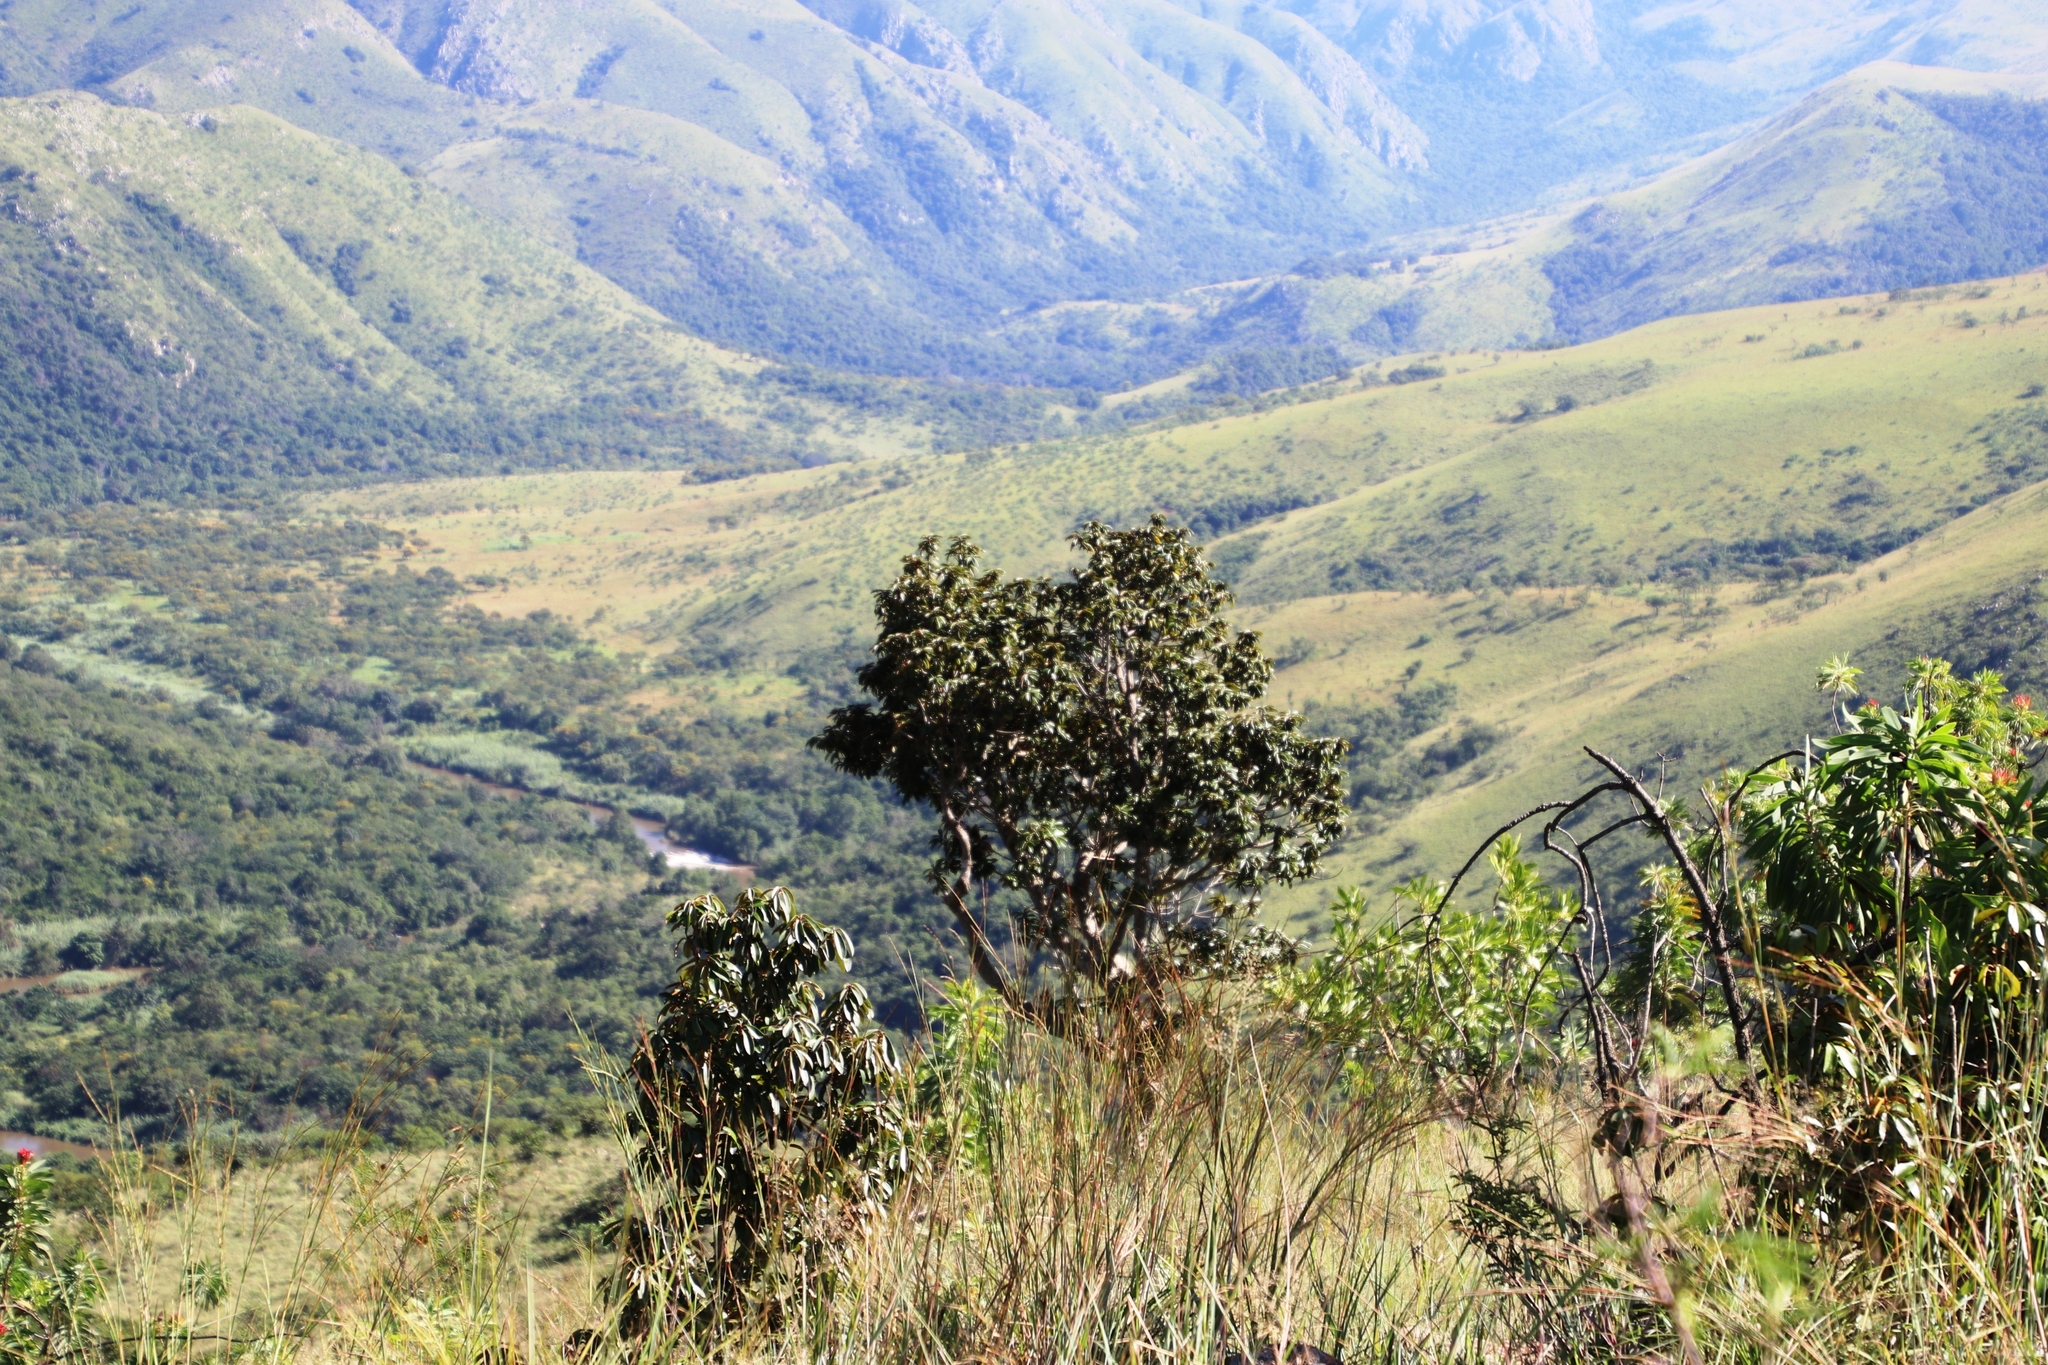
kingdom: Plantae
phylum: Tracheophyta
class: Magnoliopsida
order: Ericales
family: Sapotaceae
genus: Englerophytum
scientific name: Englerophytum magalismontanum
